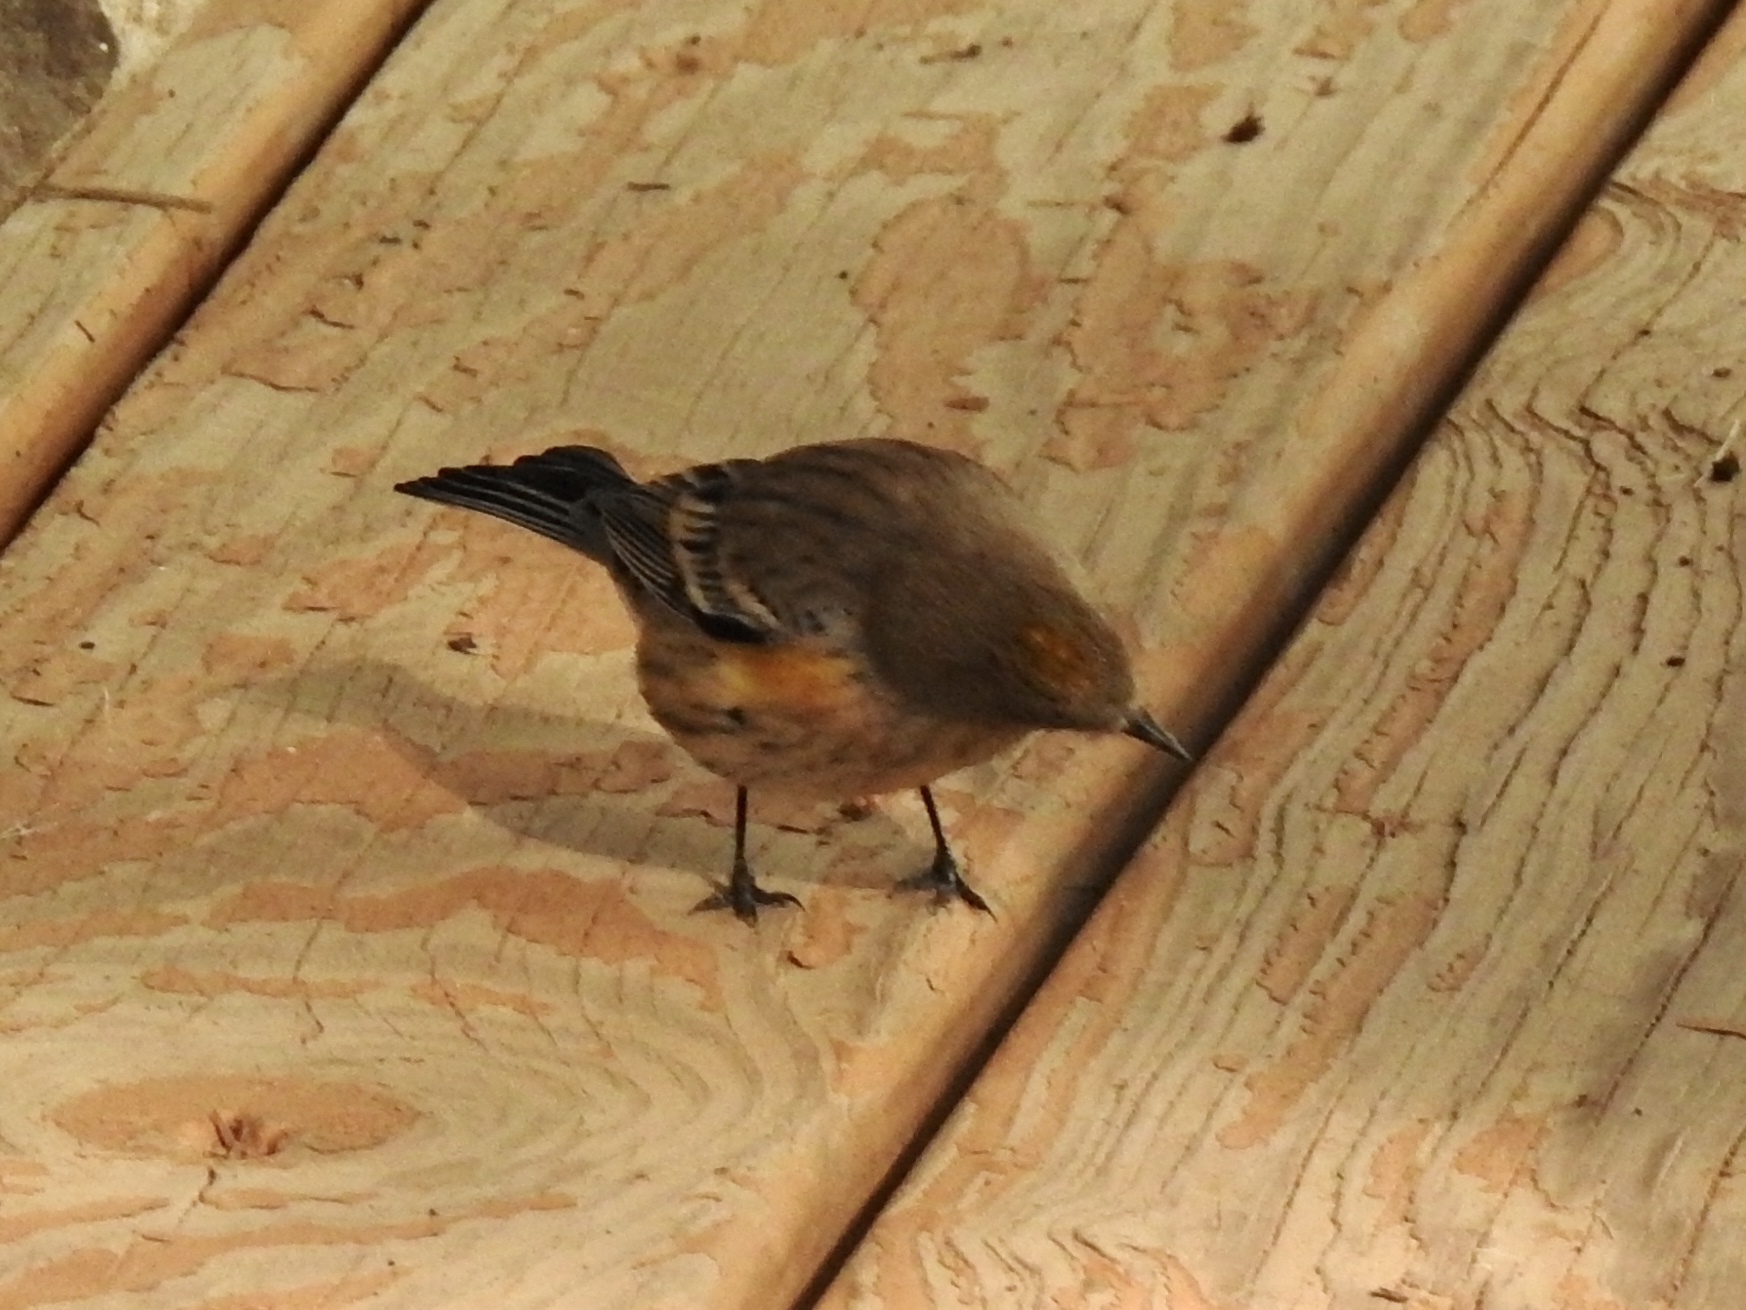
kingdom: Animalia
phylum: Chordata
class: Aves
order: Passeriformes
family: Parulidae
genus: Setophaga
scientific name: Setophaga coronata
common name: Myrtle warbler
